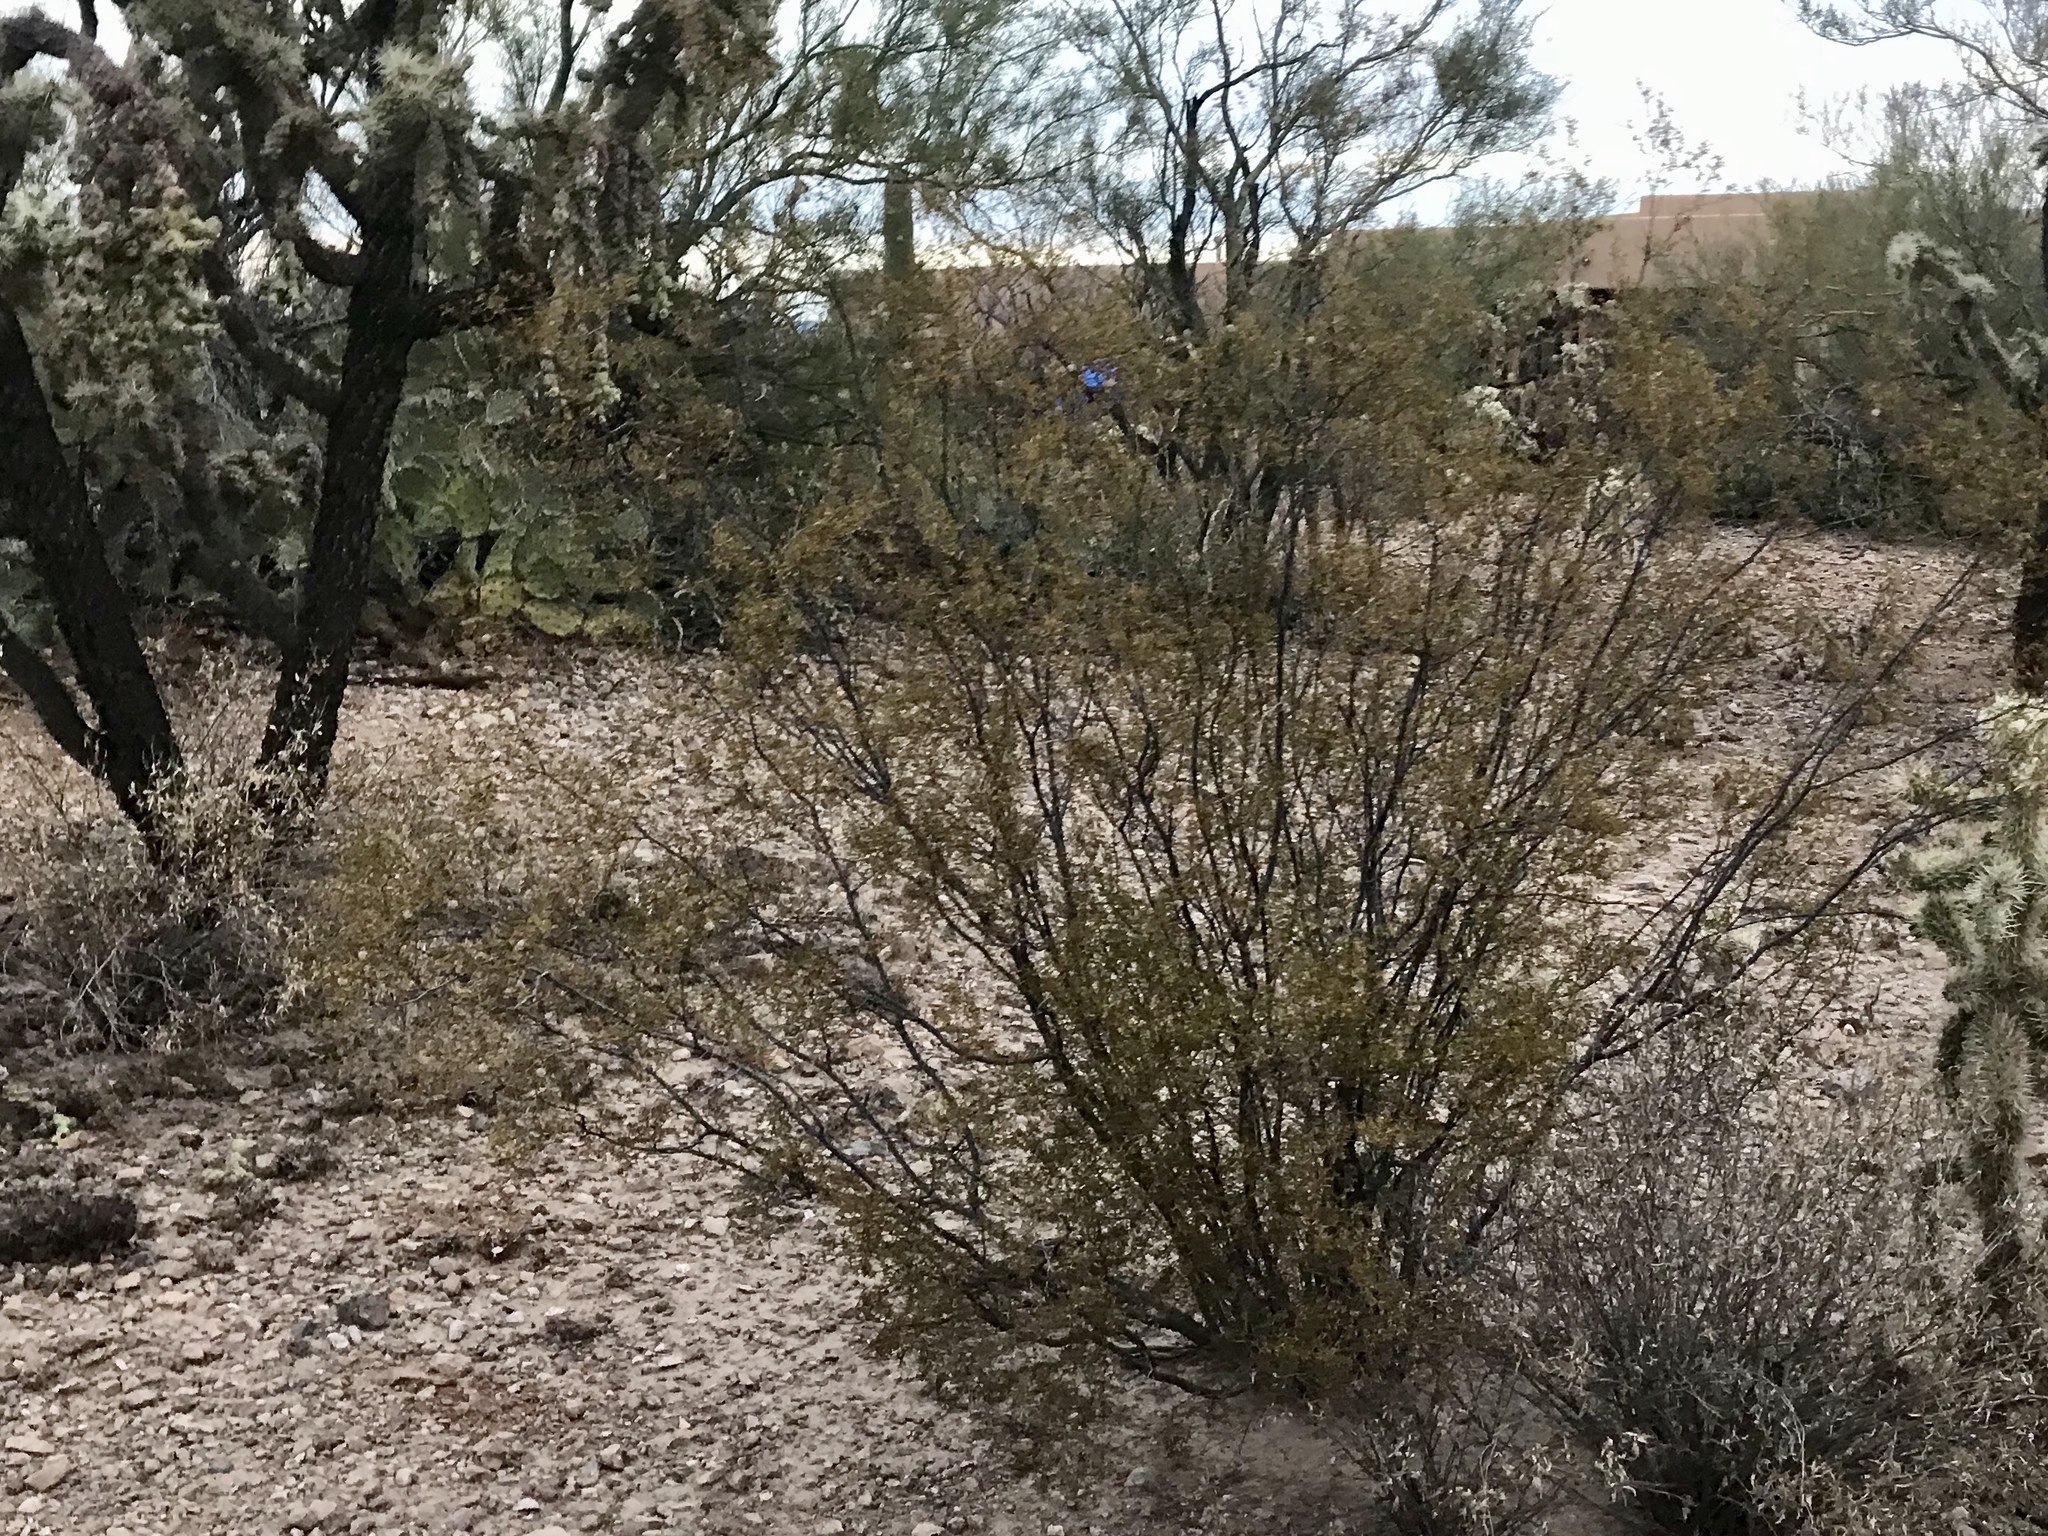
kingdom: Plantae
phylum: Tracheophyta
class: Magnoliopsida
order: Zygophyllales
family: Zygophyllaceae
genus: Larrea
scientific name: Larrea tridentata
